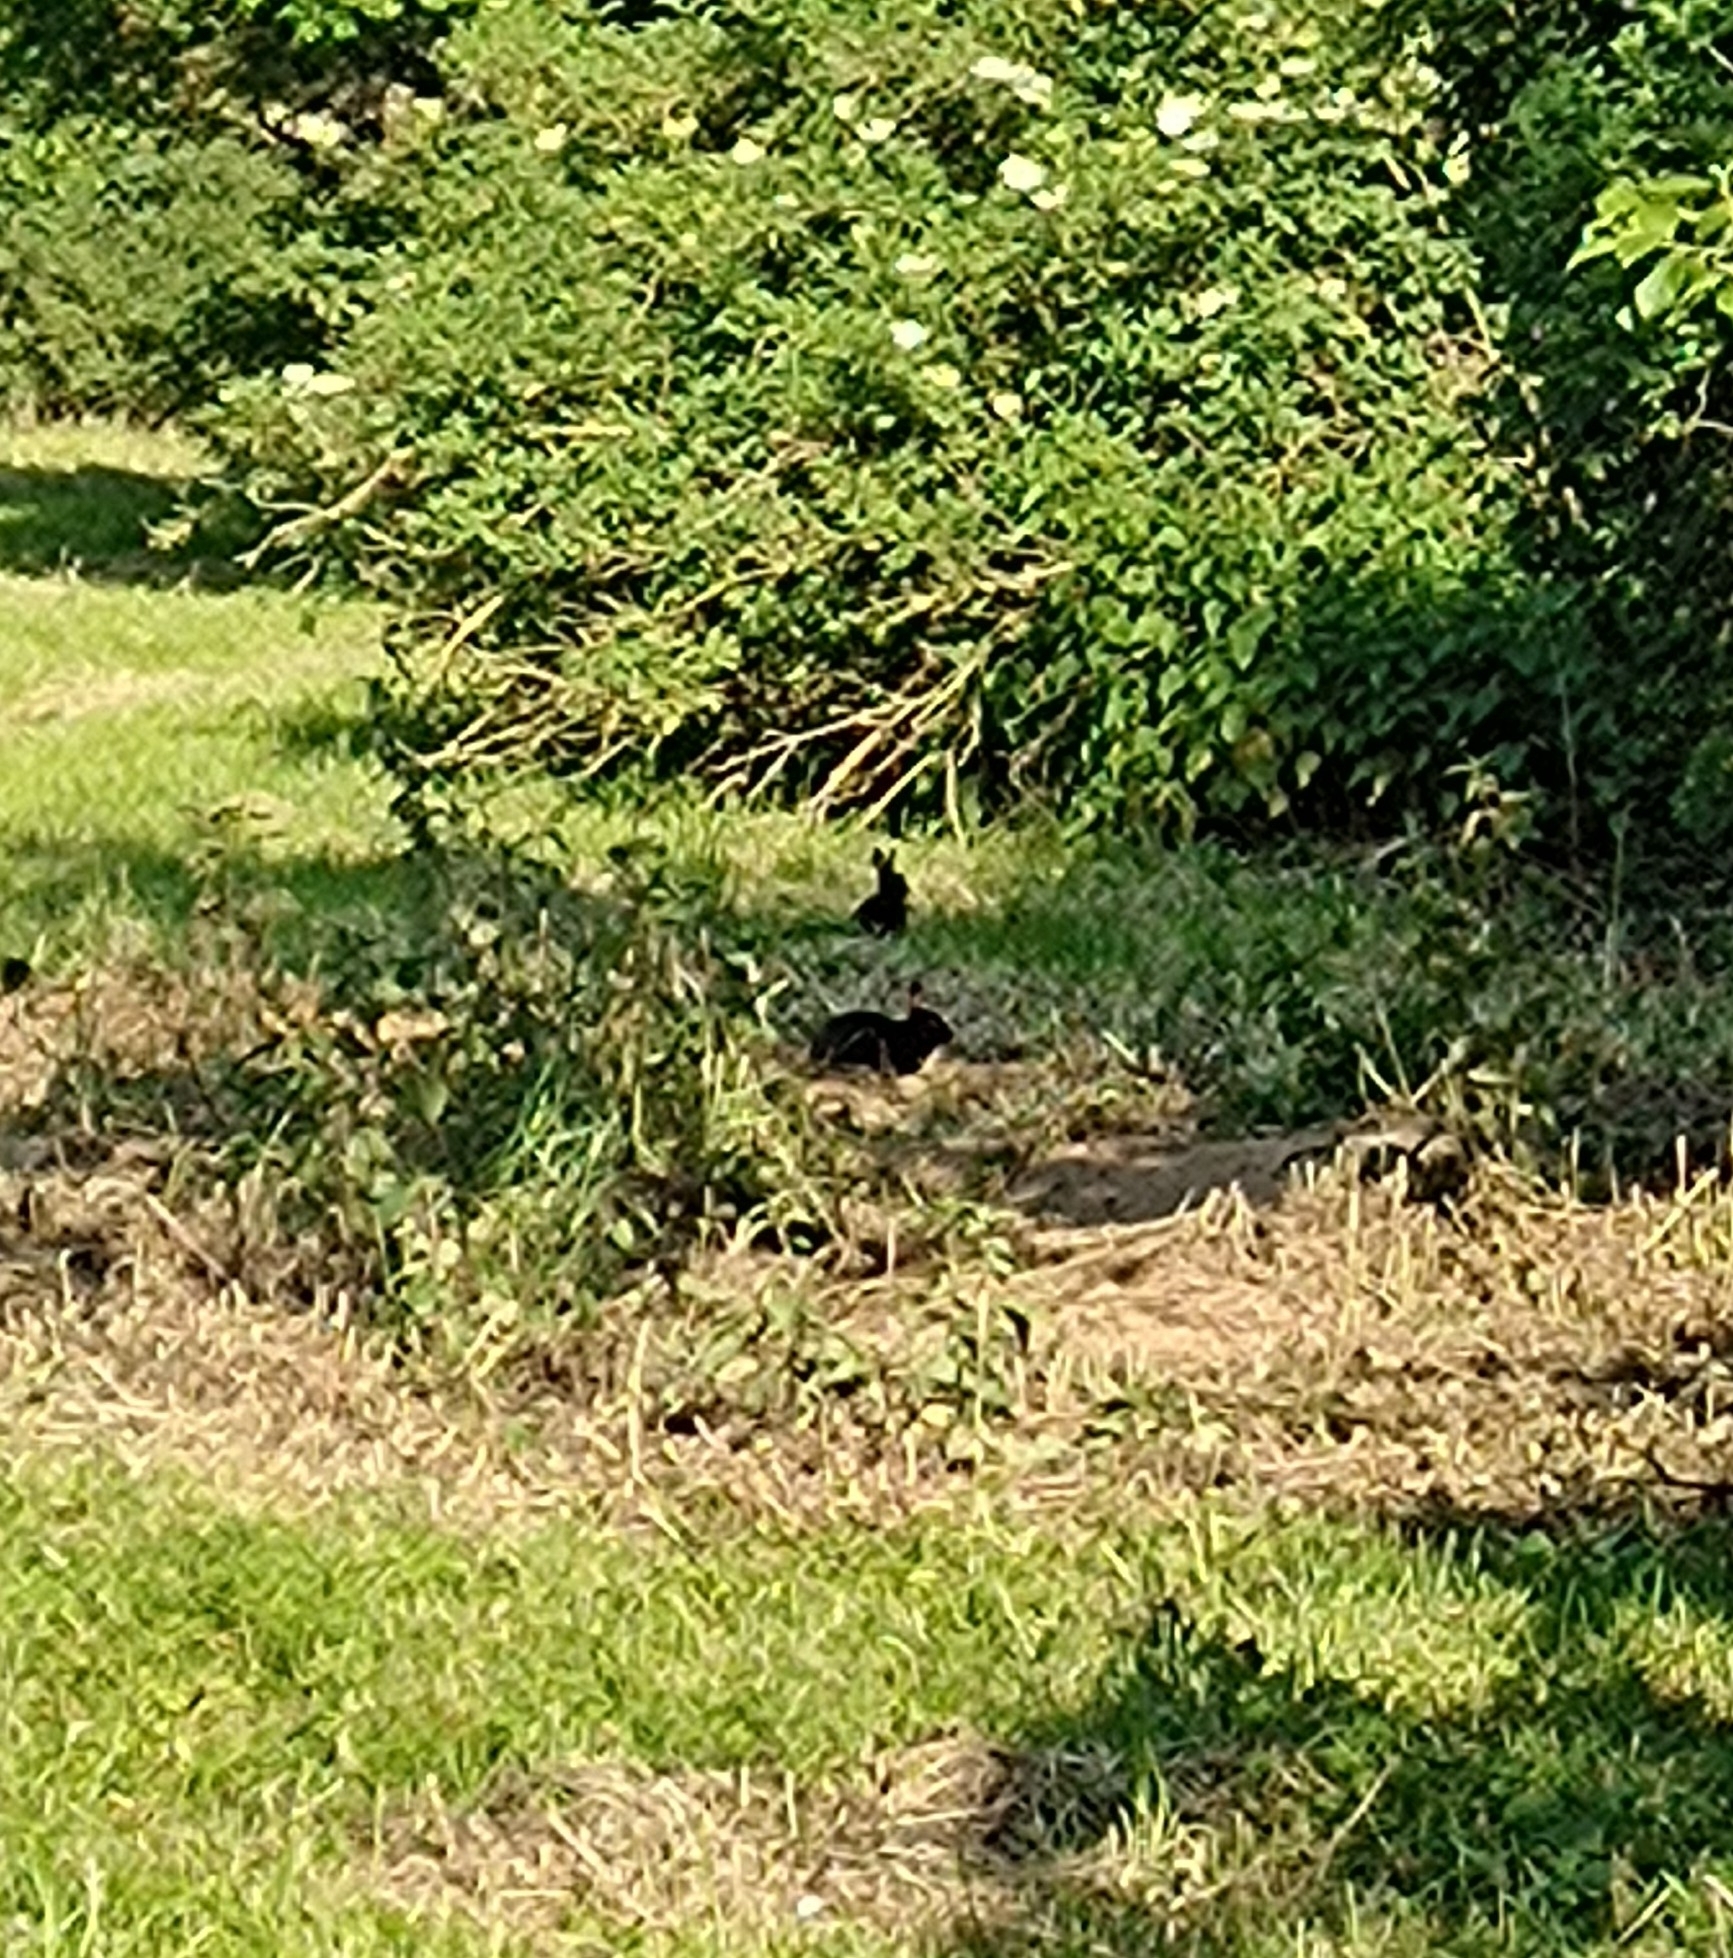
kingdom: Animalia
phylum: Chordata
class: Mammalia
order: Lagomorpha
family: Leporidae
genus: Oryctolagus
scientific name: Oryctolagus cuniculus
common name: European rabbit
